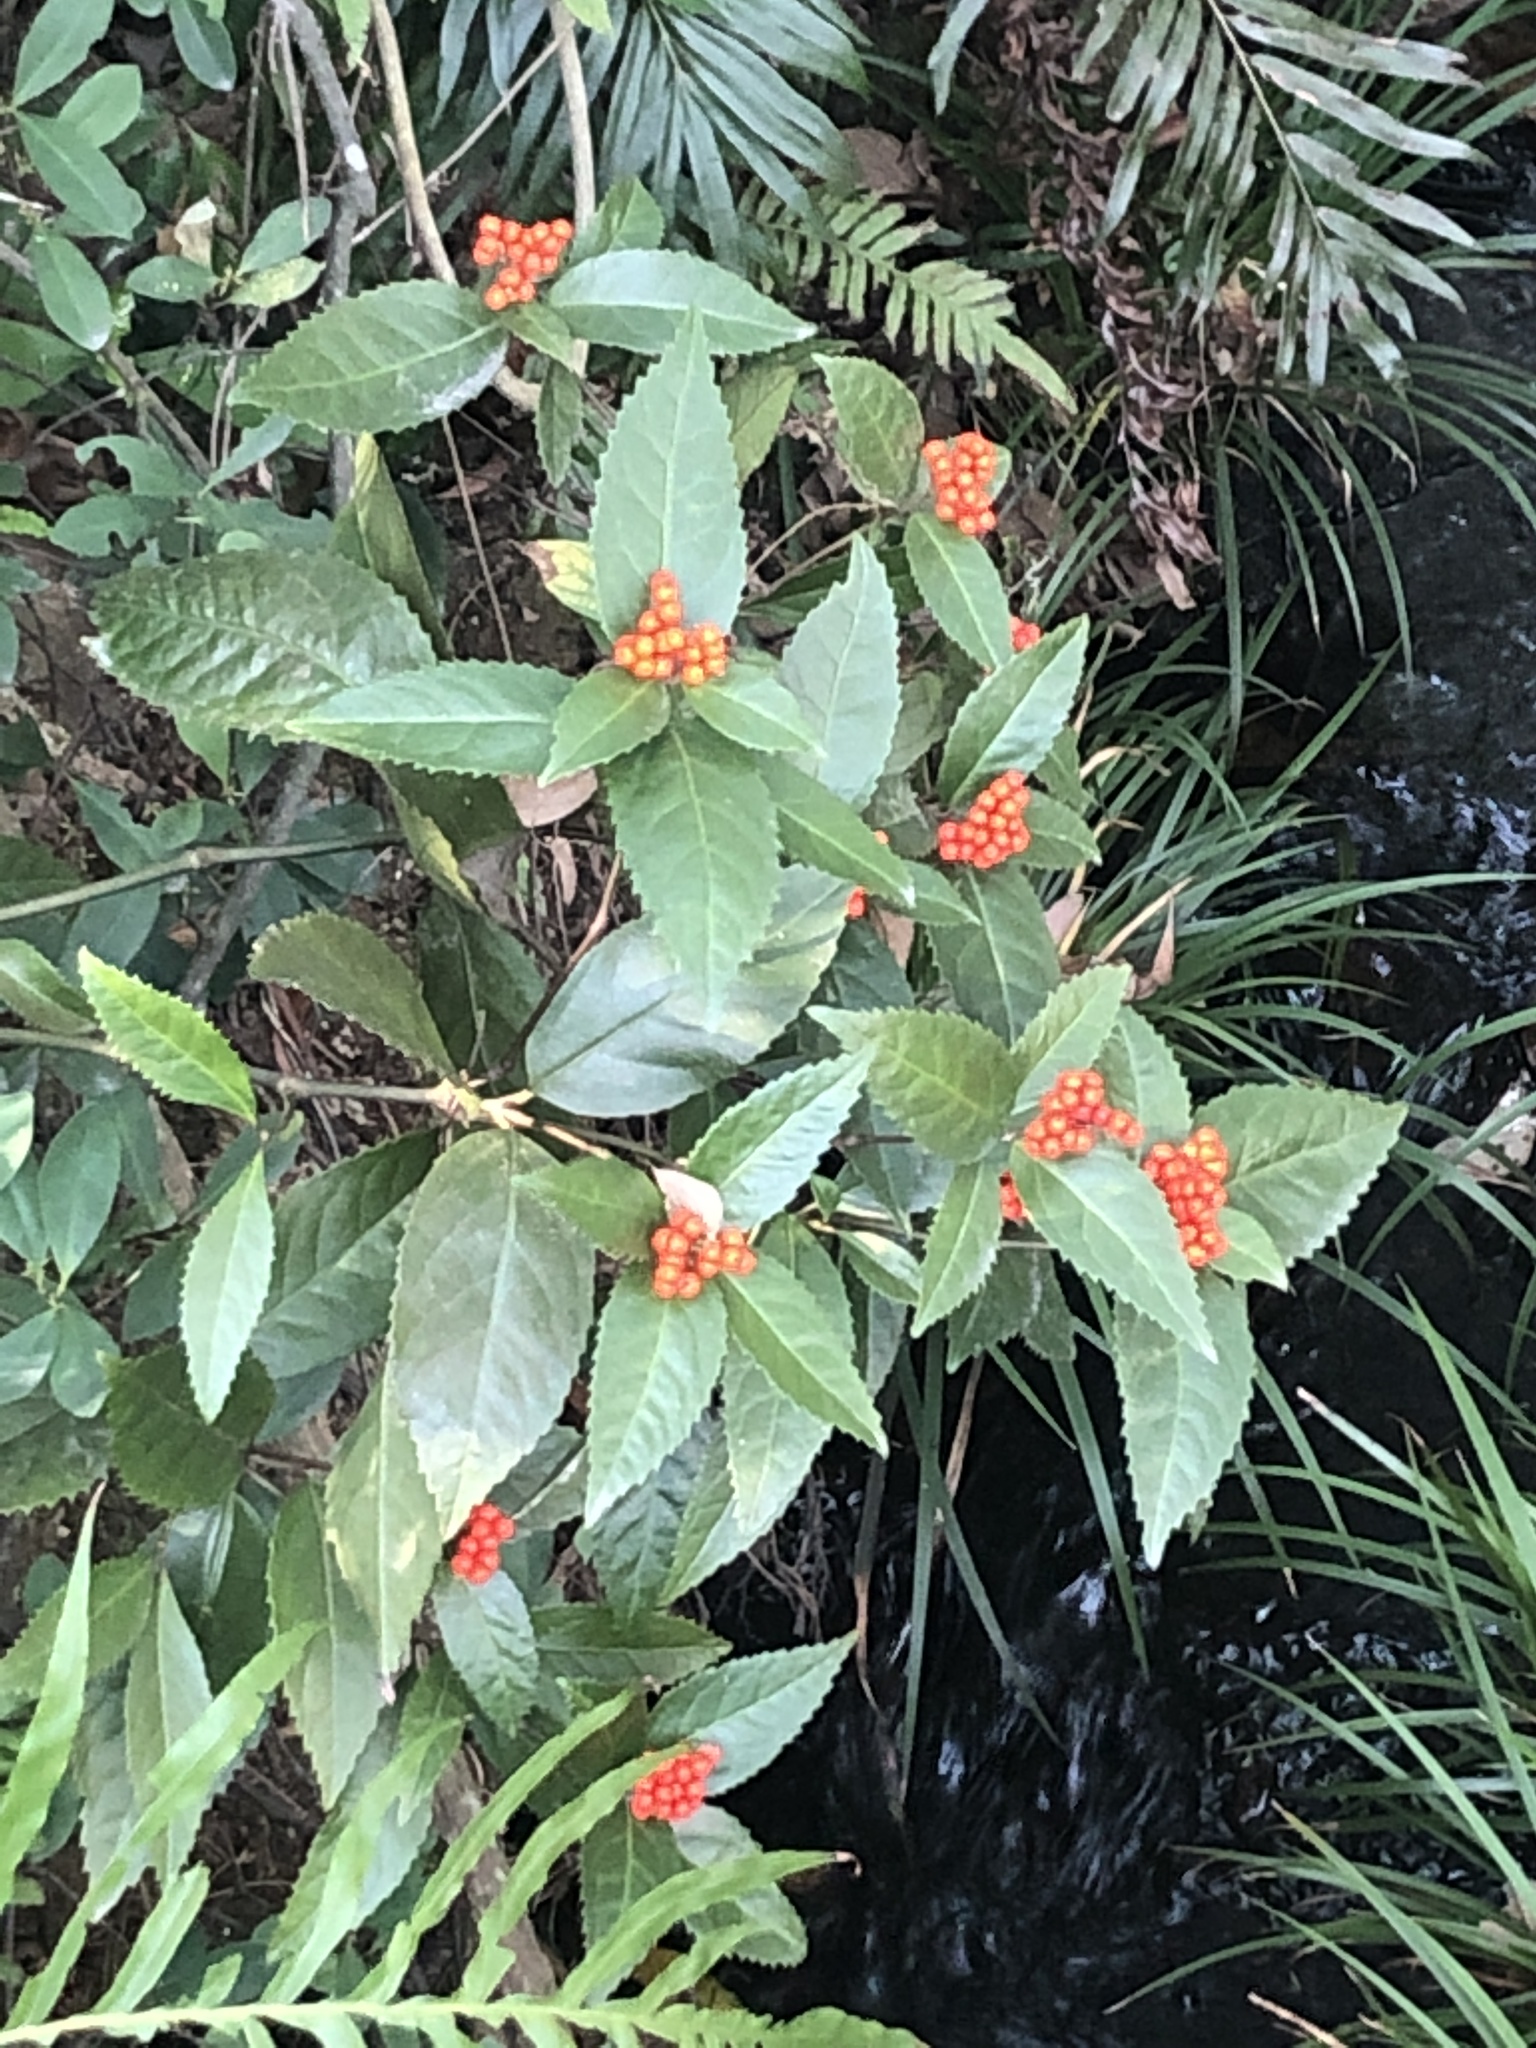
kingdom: Plantae
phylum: Tracheophyta
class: Magnoliopsida
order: Chloranthales
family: Chloranthaceae
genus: Sarcandra
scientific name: Sarcandra glabra
